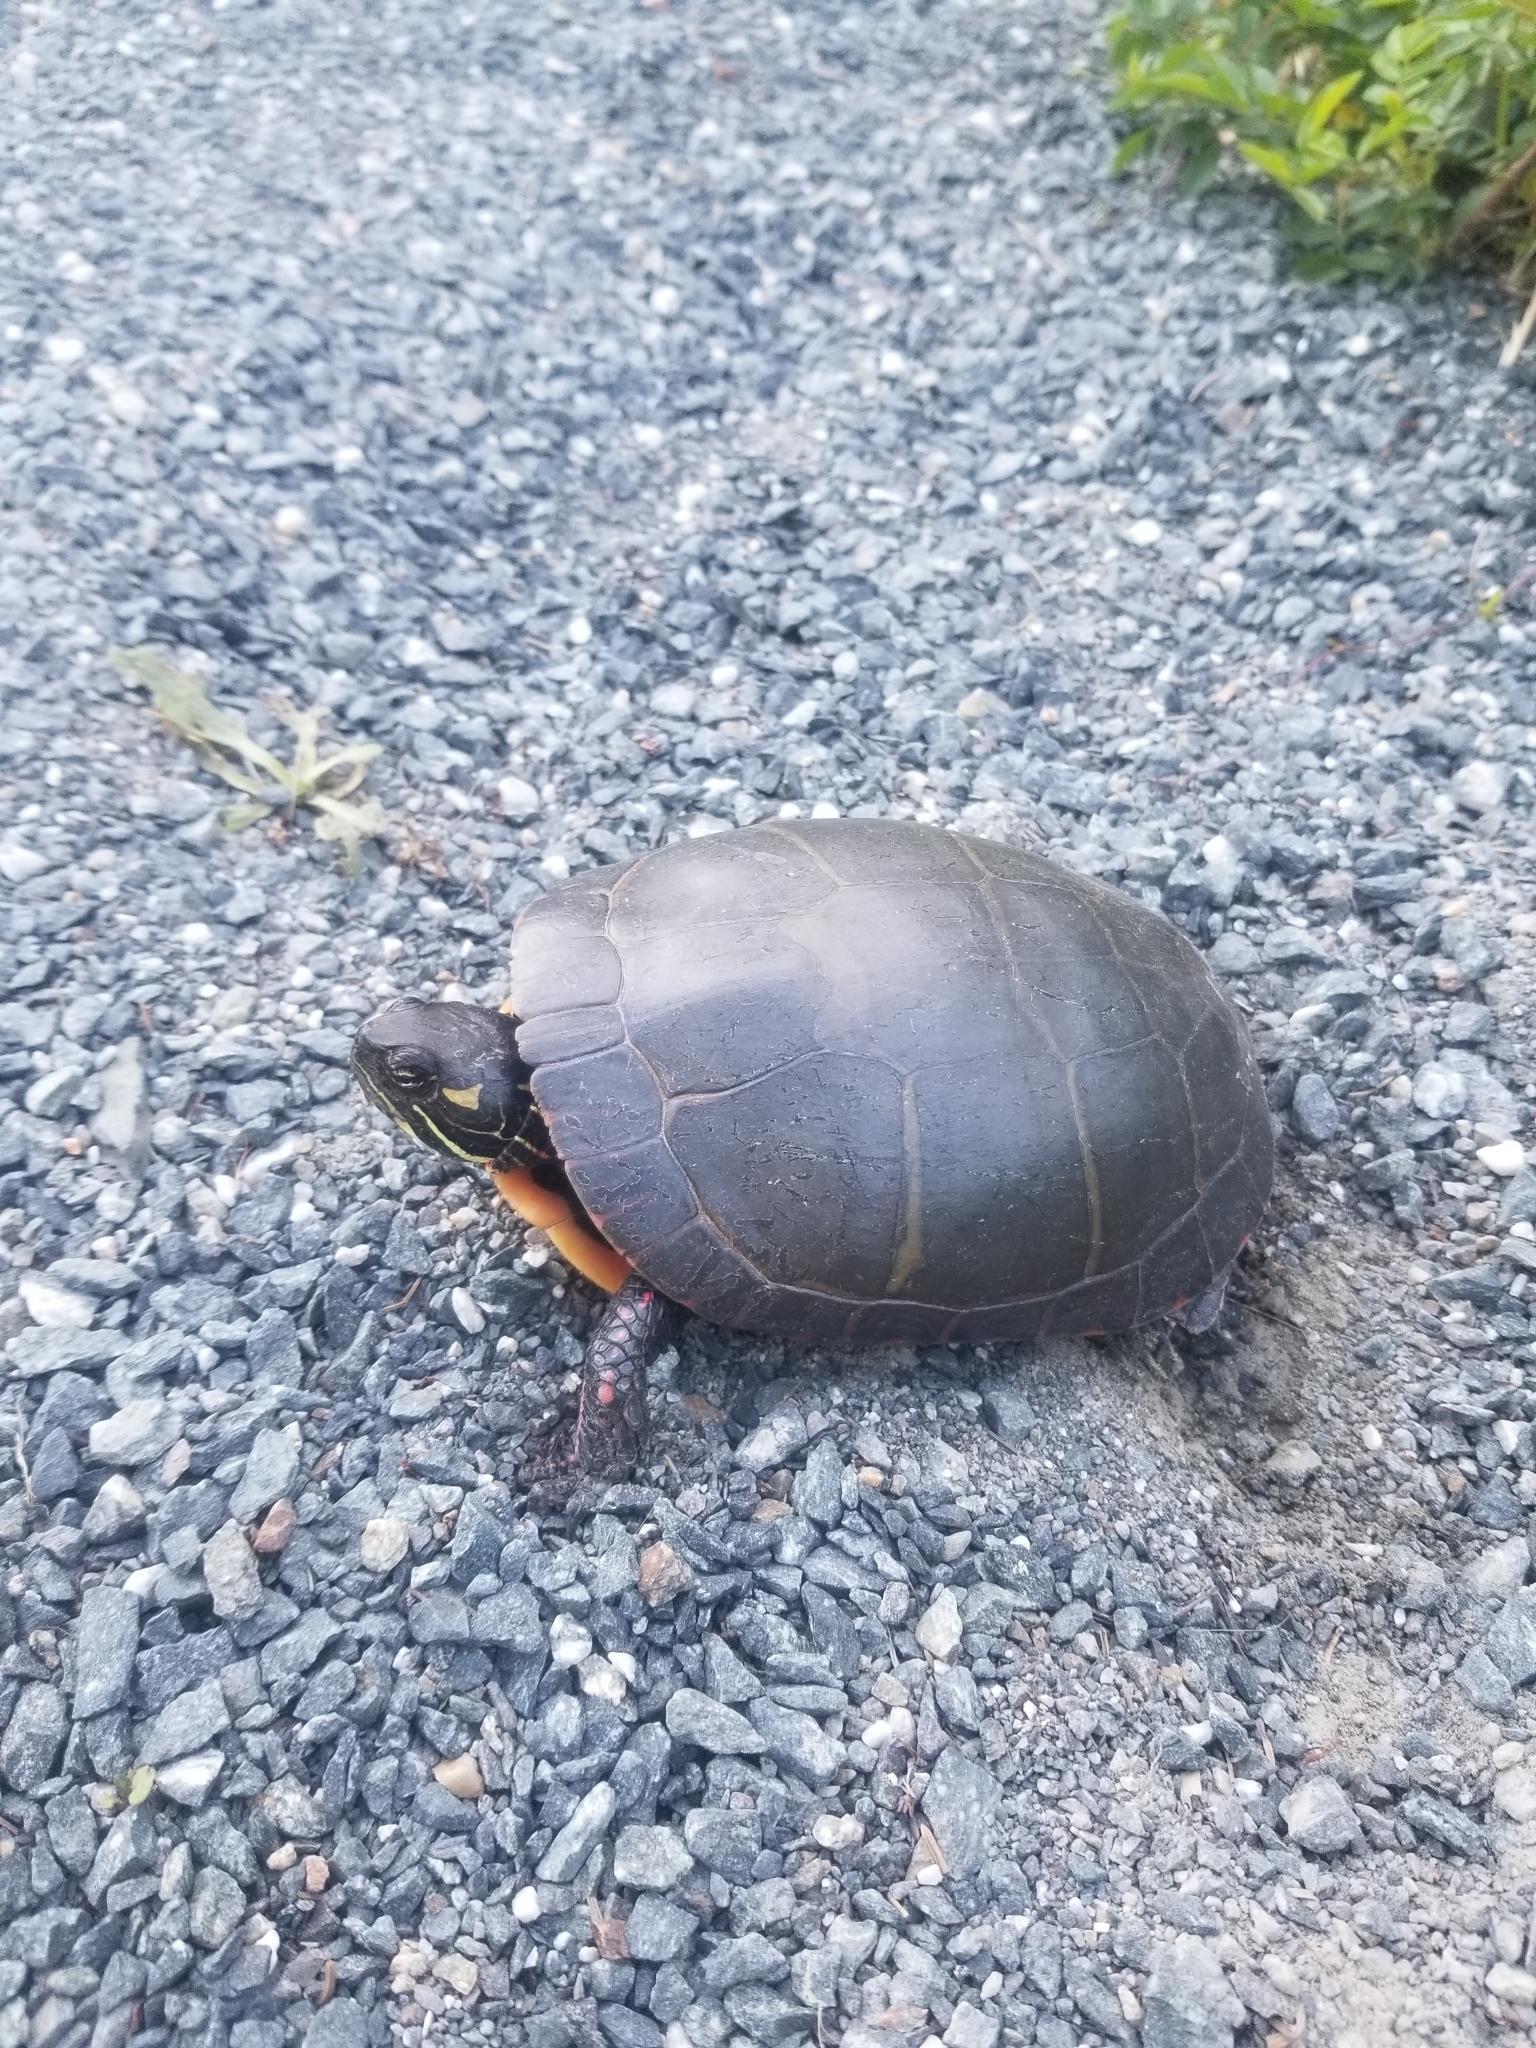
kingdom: Animalia
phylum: Chordata
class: Testudines
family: Emydidae
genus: Chrysemys
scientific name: Chrysemys picta
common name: Painted turtle
